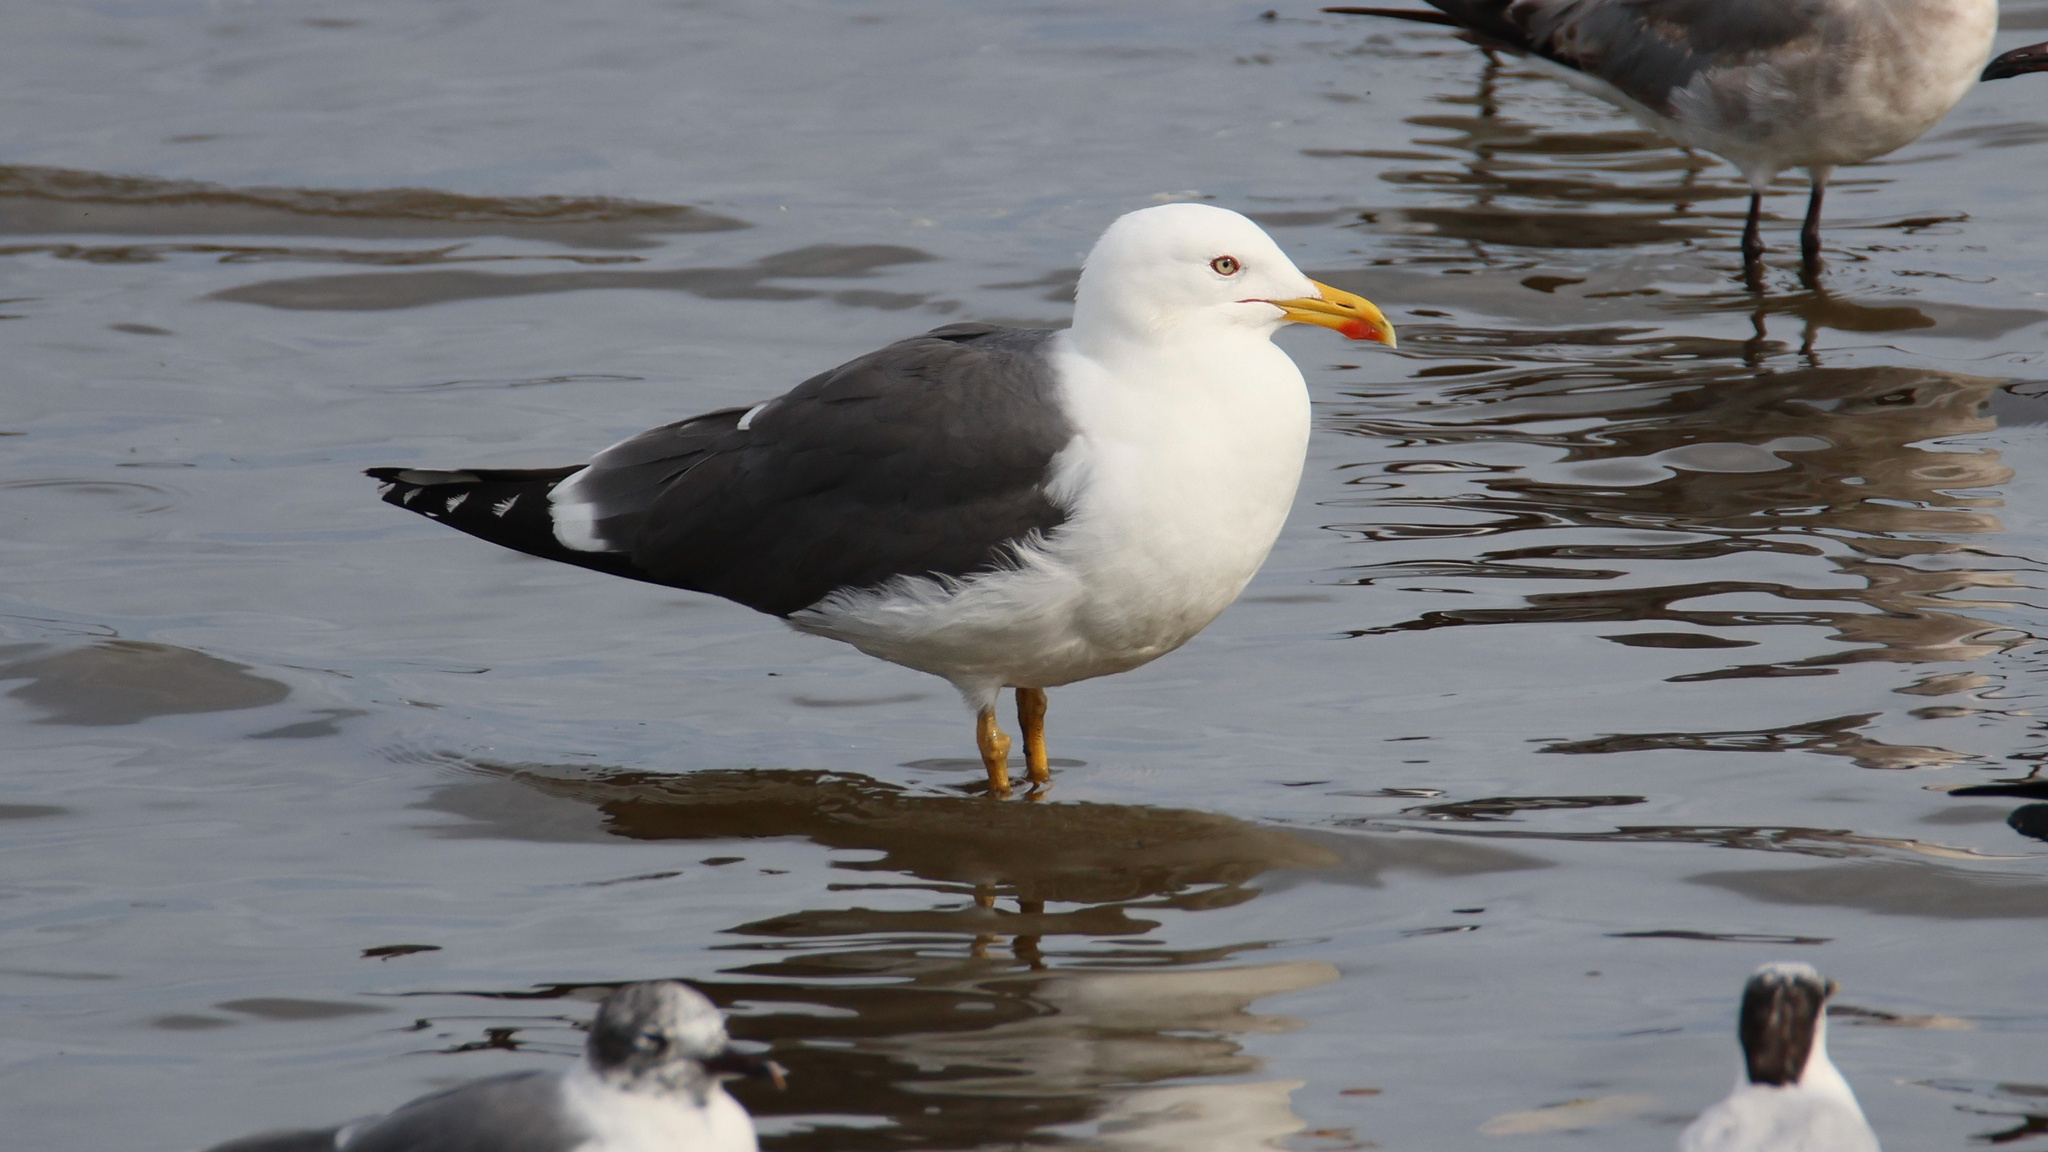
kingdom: Animalia
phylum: Chordata
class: Aves
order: Charadriiformes
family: Laridae
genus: Larus
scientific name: Larus fuscus
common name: Lesser black-backed gull
